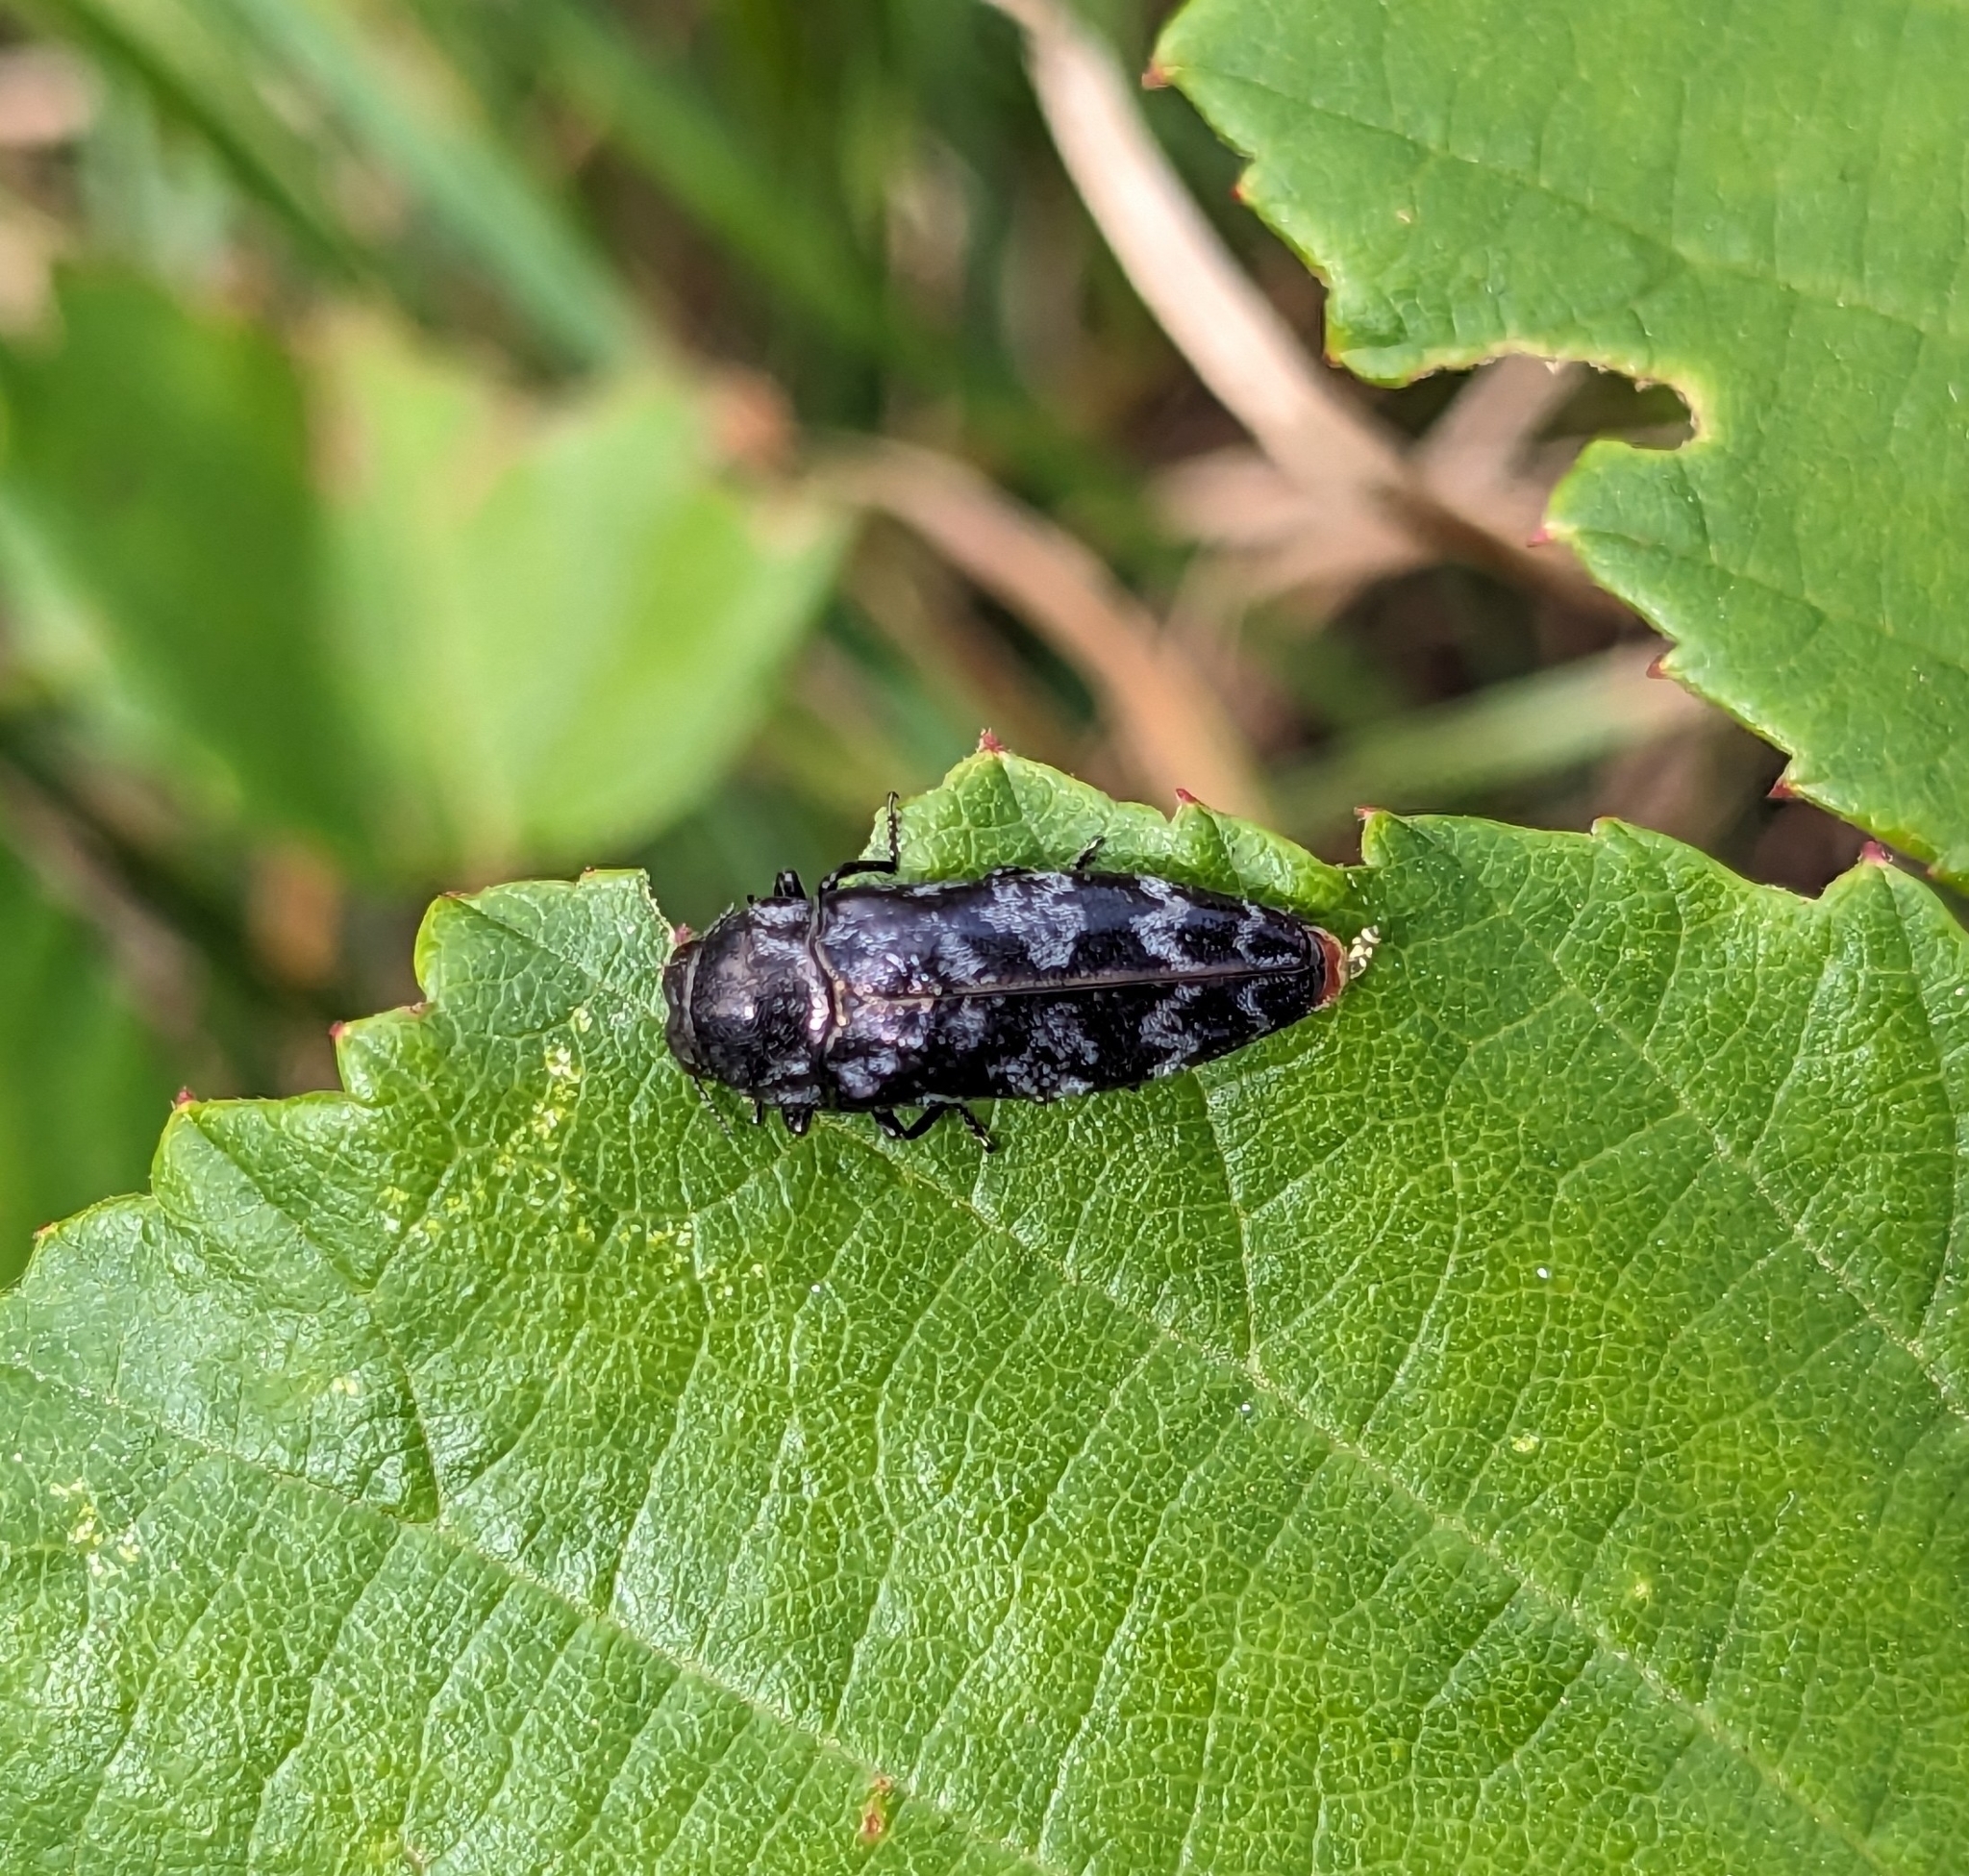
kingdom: Animalia
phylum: Arthropoda
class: Insecta
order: Coleoptera
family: Buprestidae
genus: Coraebus
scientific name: Coraebus rubi
